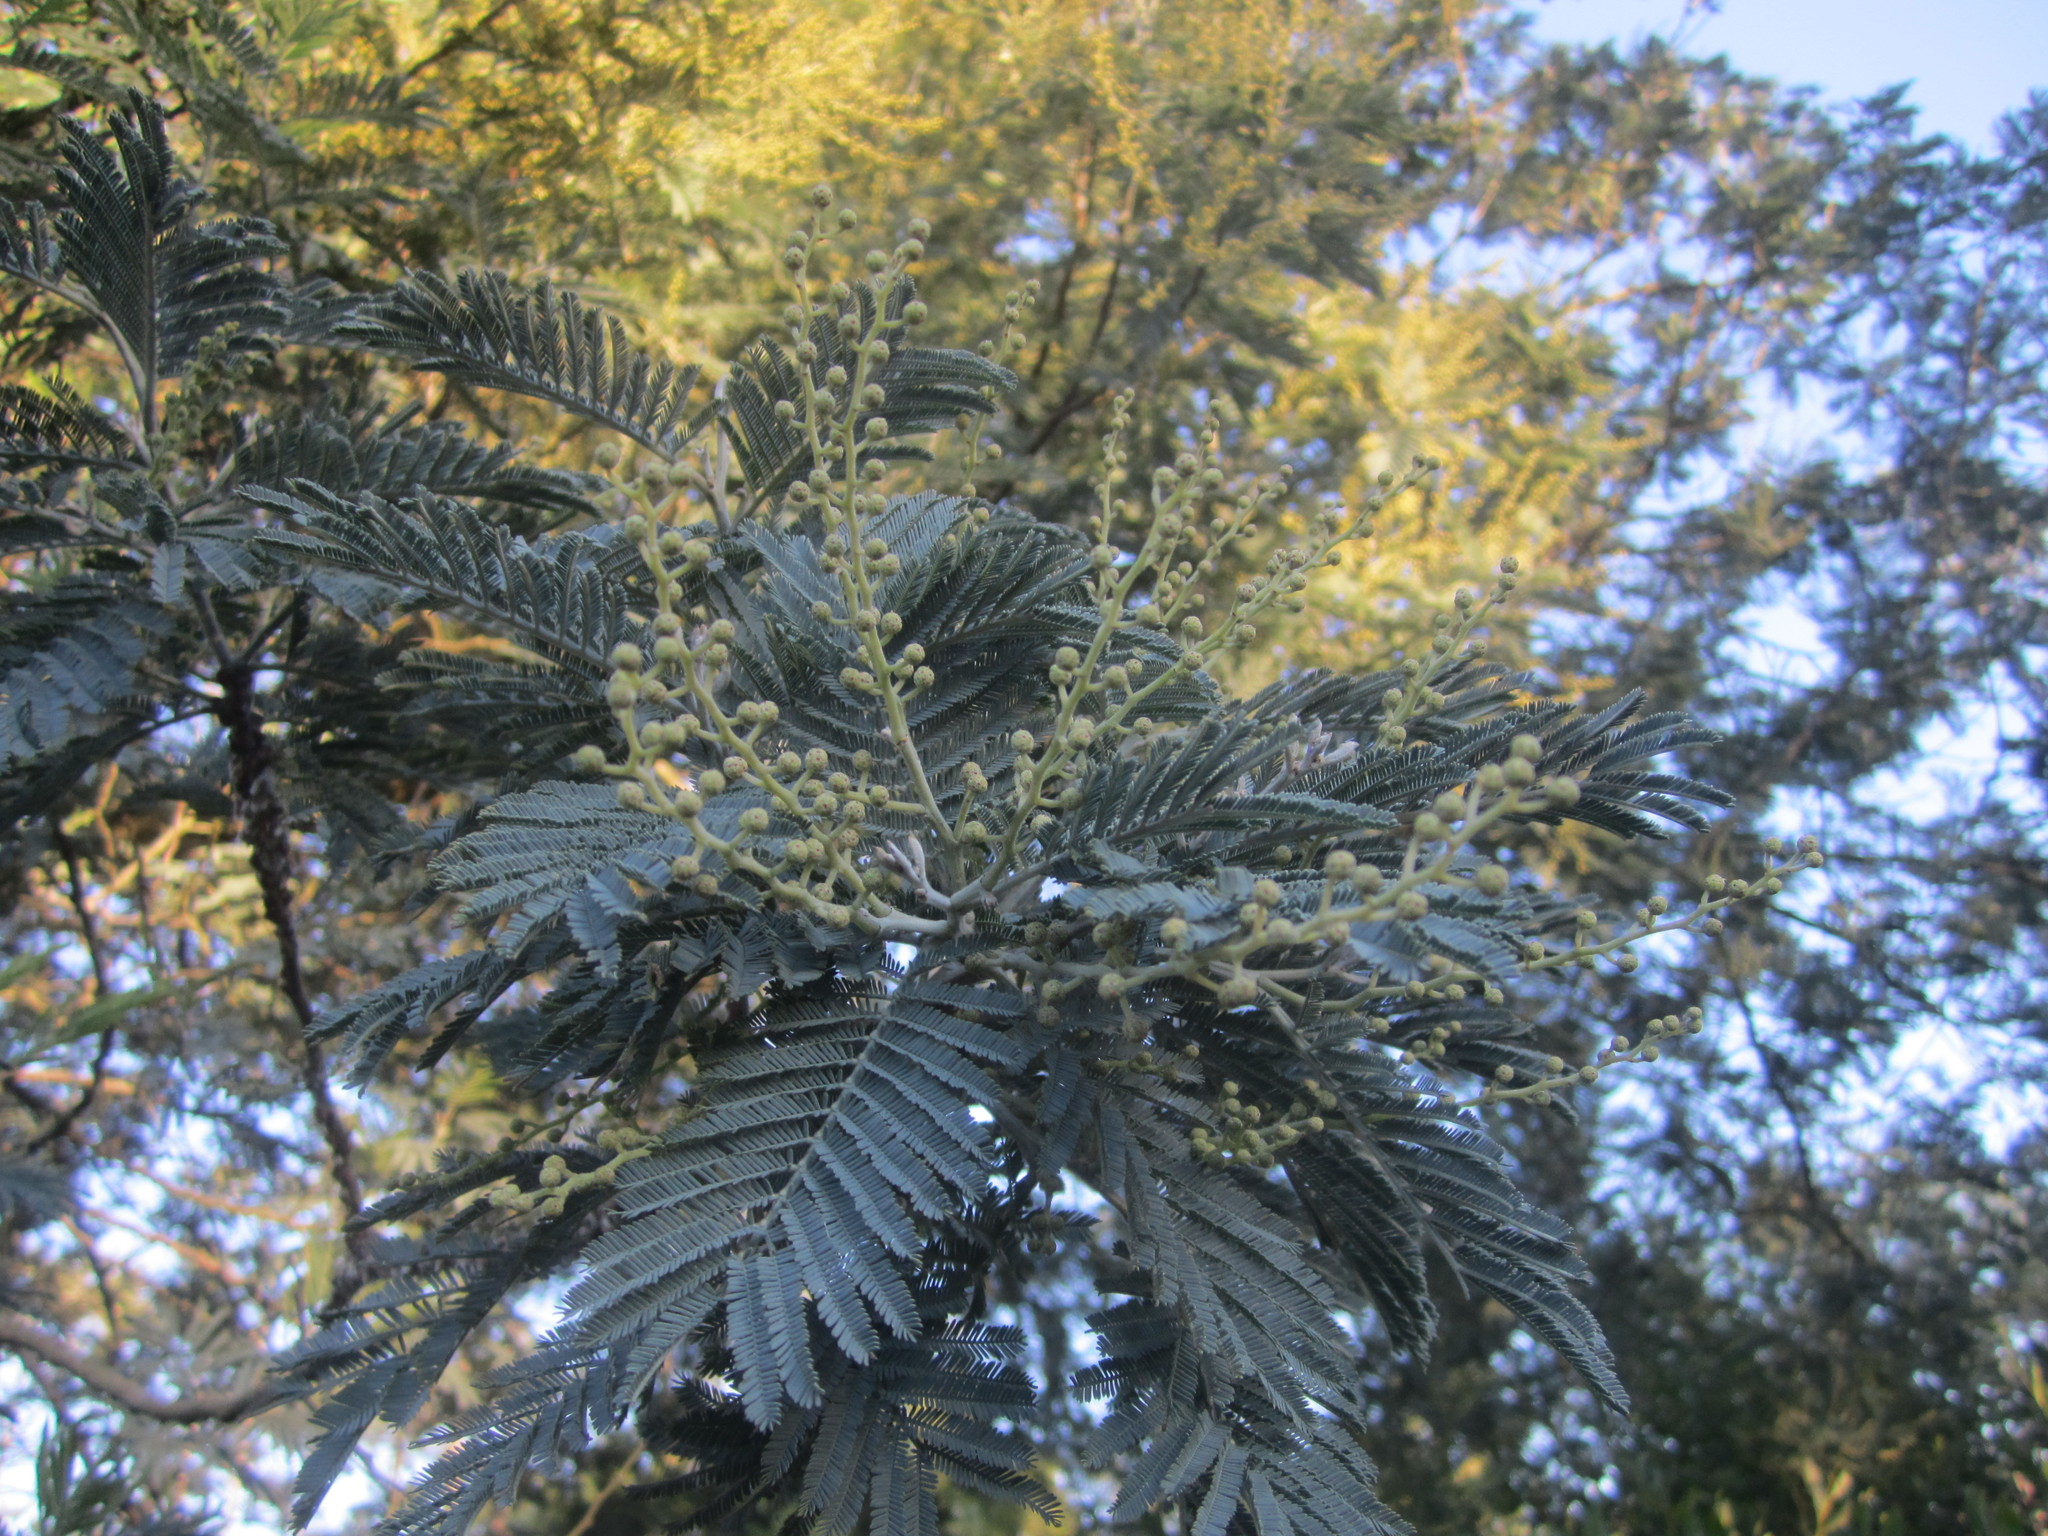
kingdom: Plantae
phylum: Tracheophyta
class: Magnoliopsida
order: Fabales
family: Fabaceae
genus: Acacia
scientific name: Acacia dealbata
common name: Silver wattle
